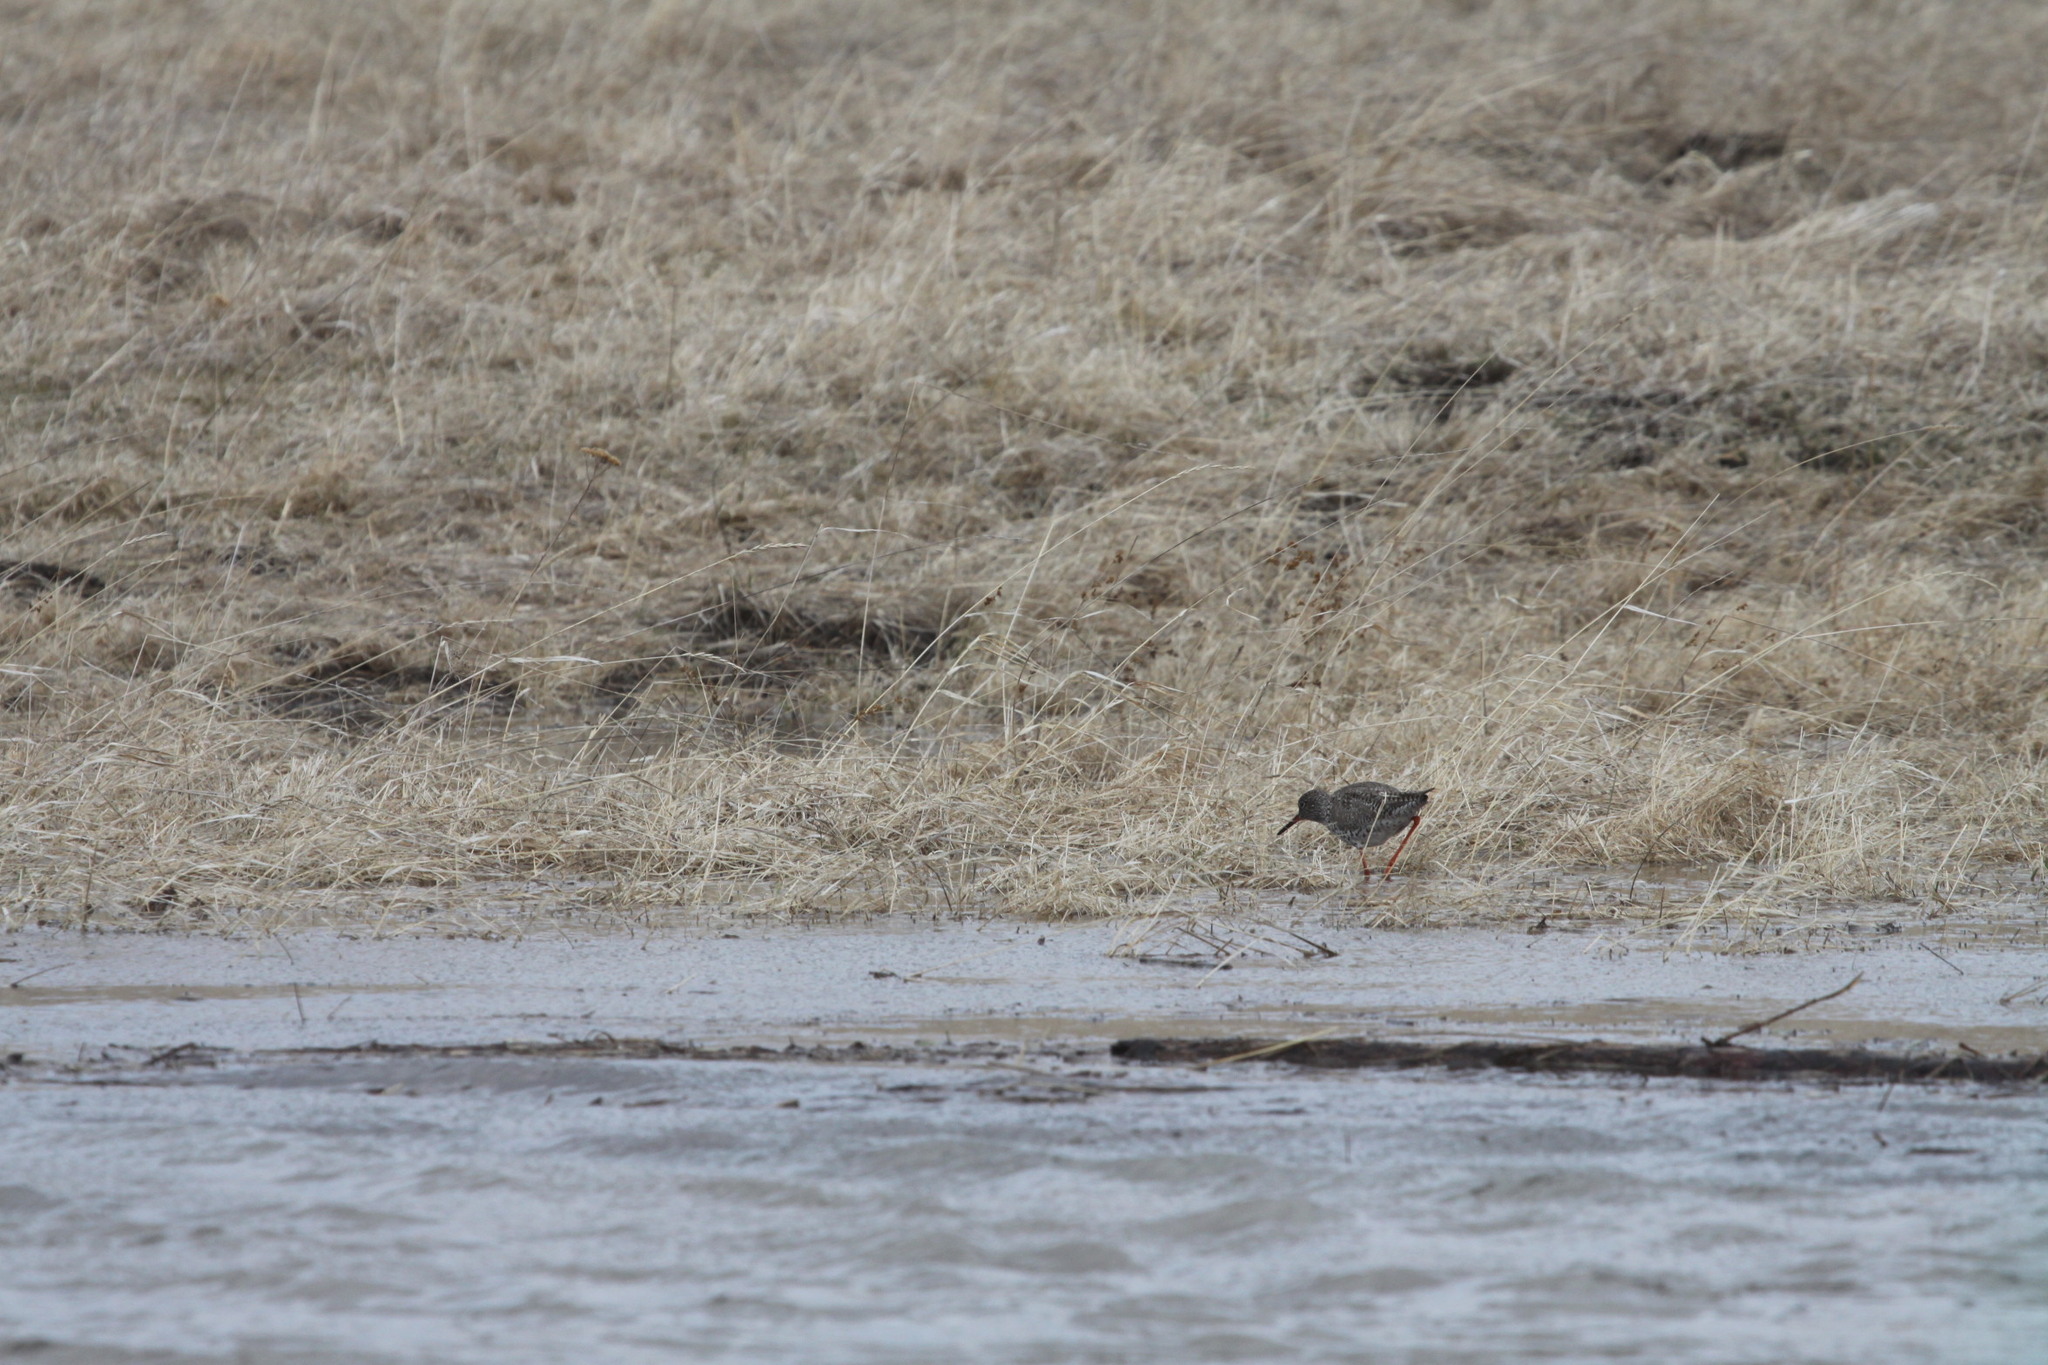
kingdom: Animalia
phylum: Chordata
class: Aves
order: Charadriiformes
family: Scolopacidae
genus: Tringa
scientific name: Tringa totanus
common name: Common redshank
